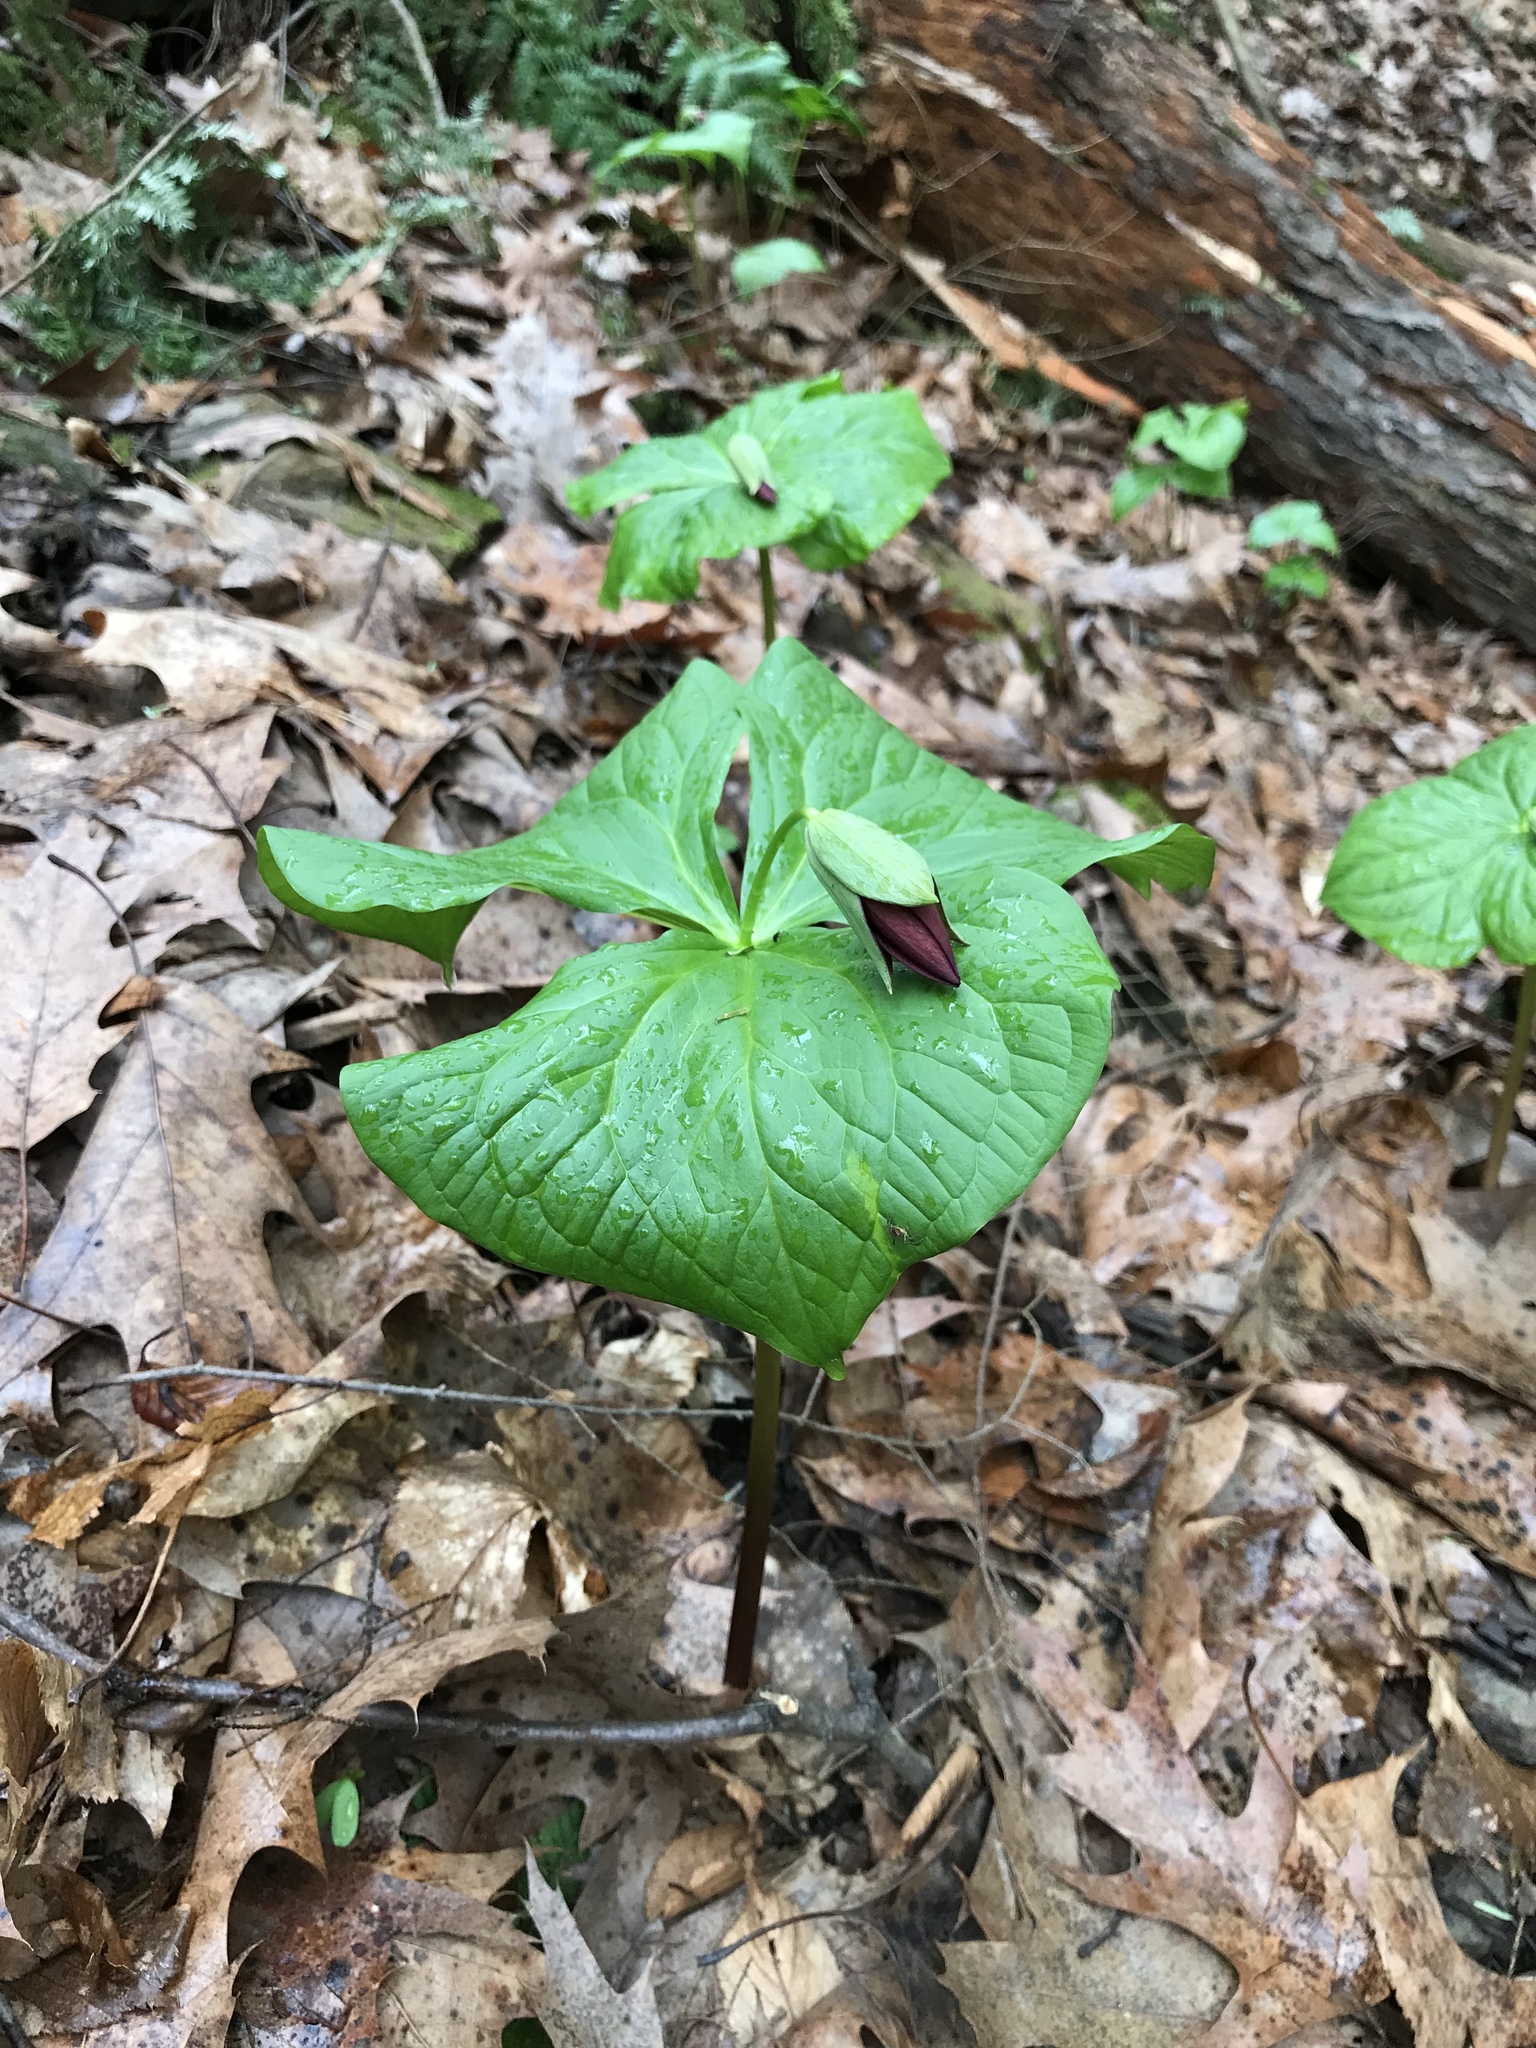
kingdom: Plantae
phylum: Tracheophyta
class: Liliopsida
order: Liliales
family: Melanthiaceae
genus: Trillium
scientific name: Trillium erectum
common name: Purple trillium
